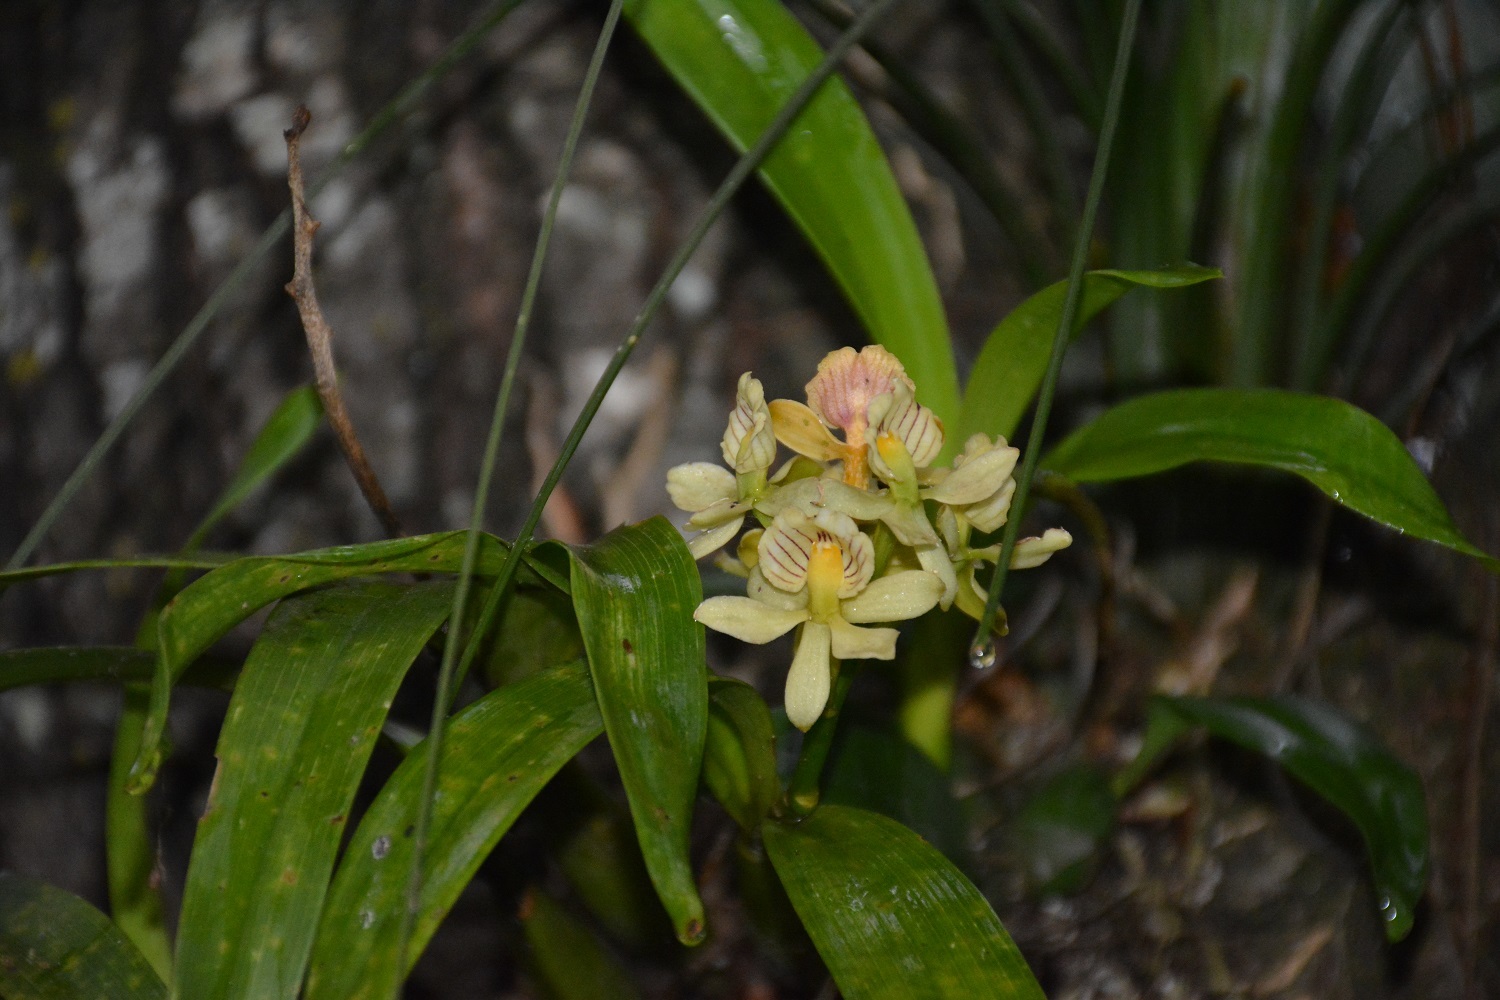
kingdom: Plantae
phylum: Tracheophyta
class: Liliopsida
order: Asparagales
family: Orchidaceae
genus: Prosthechea
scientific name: Prosthechea radiata
